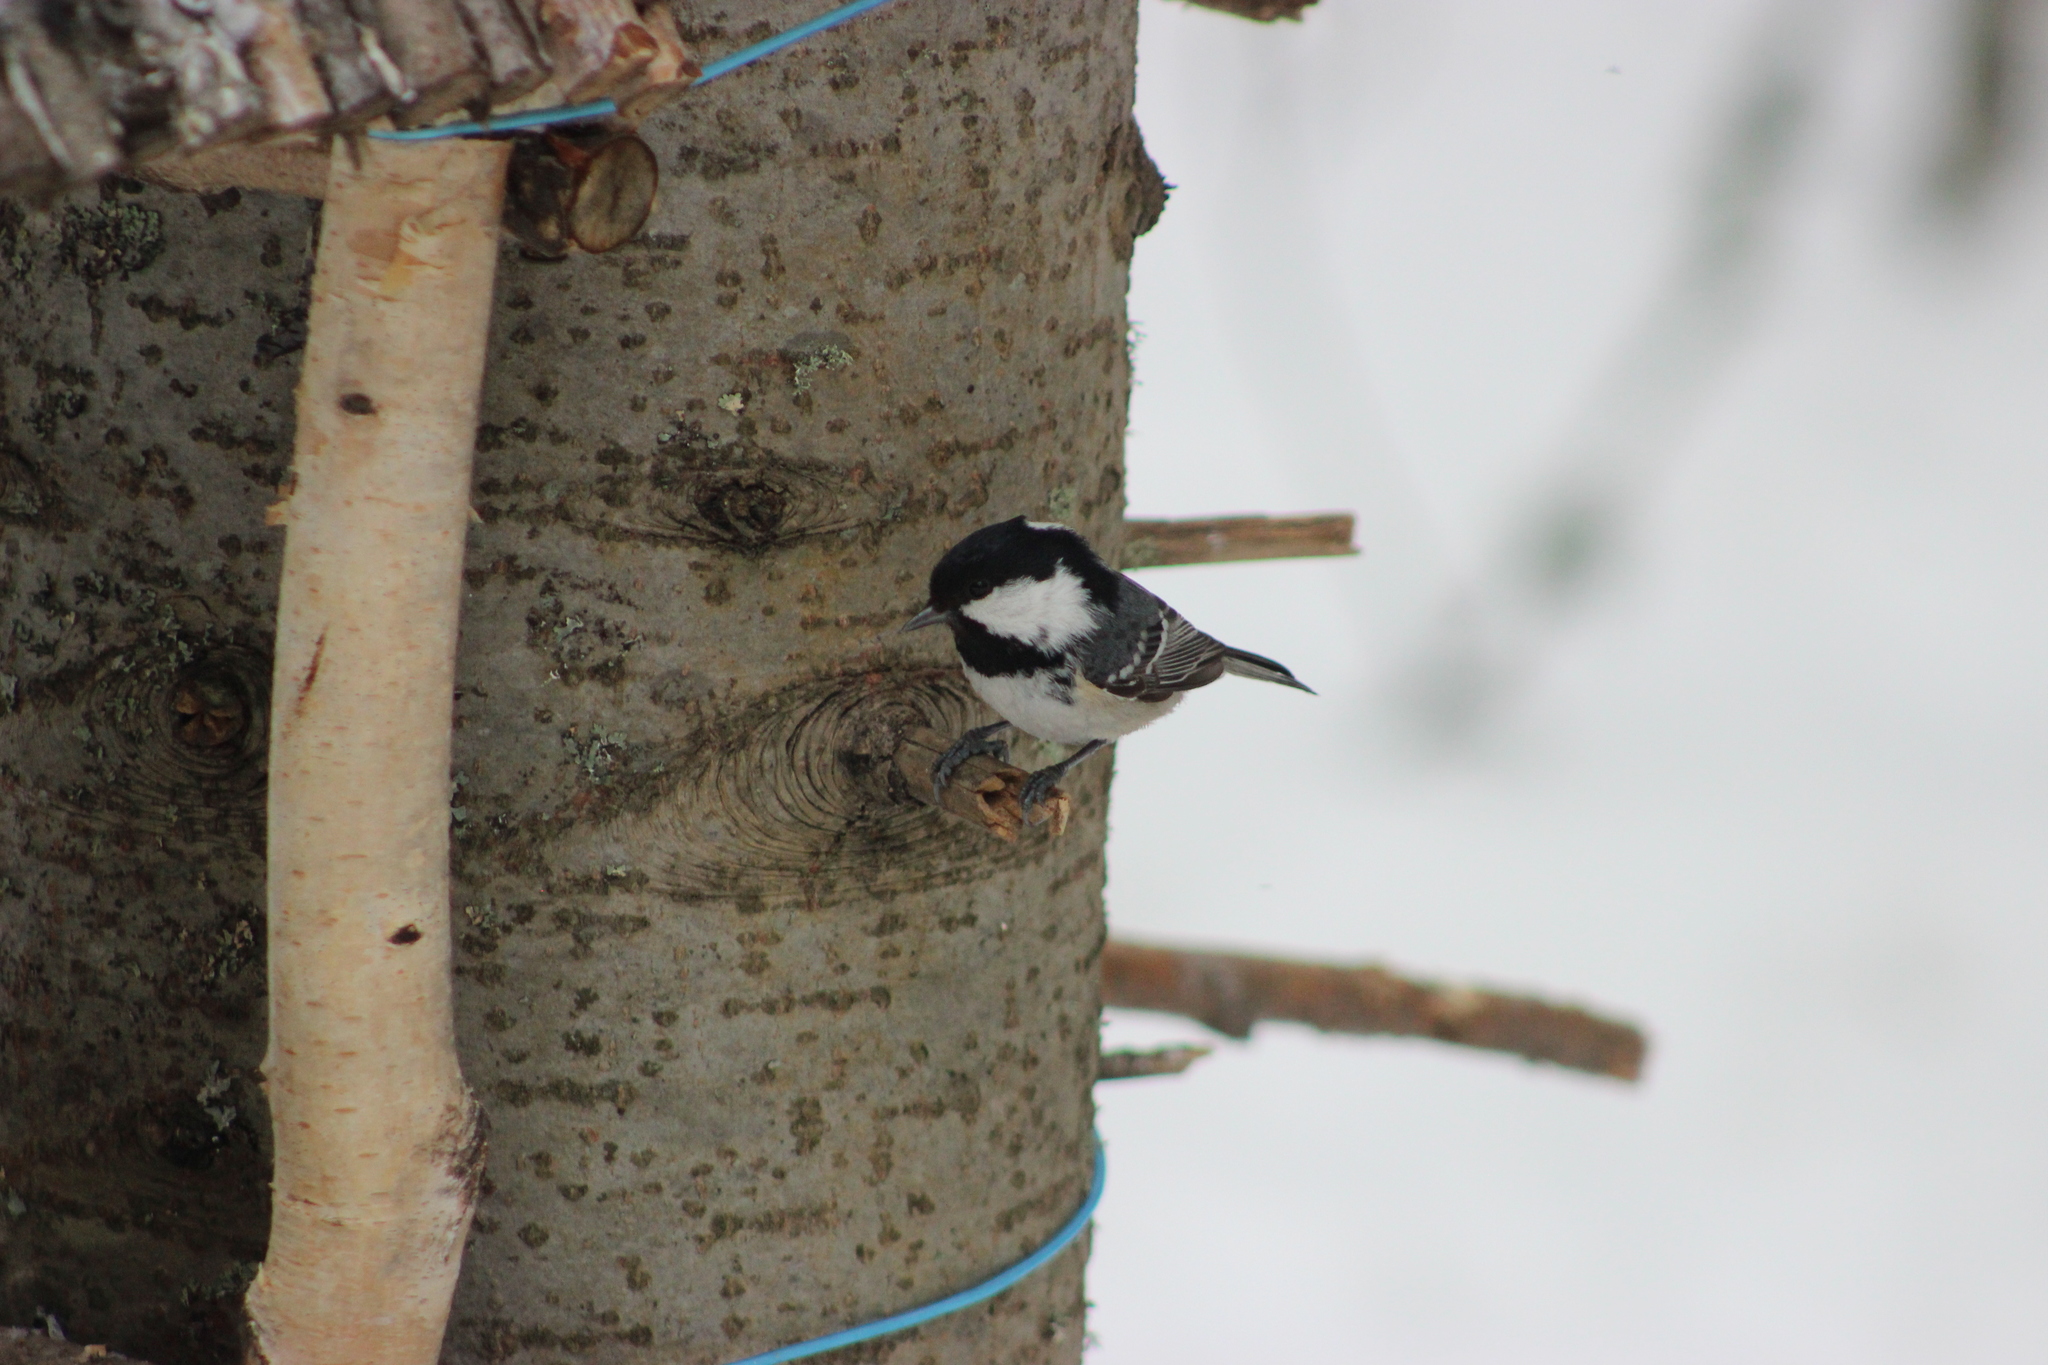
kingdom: Animalia
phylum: Chordata
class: Aves
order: Passeriformes
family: Paridae
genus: Periparus
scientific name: Periparus ater
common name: Coal tit
